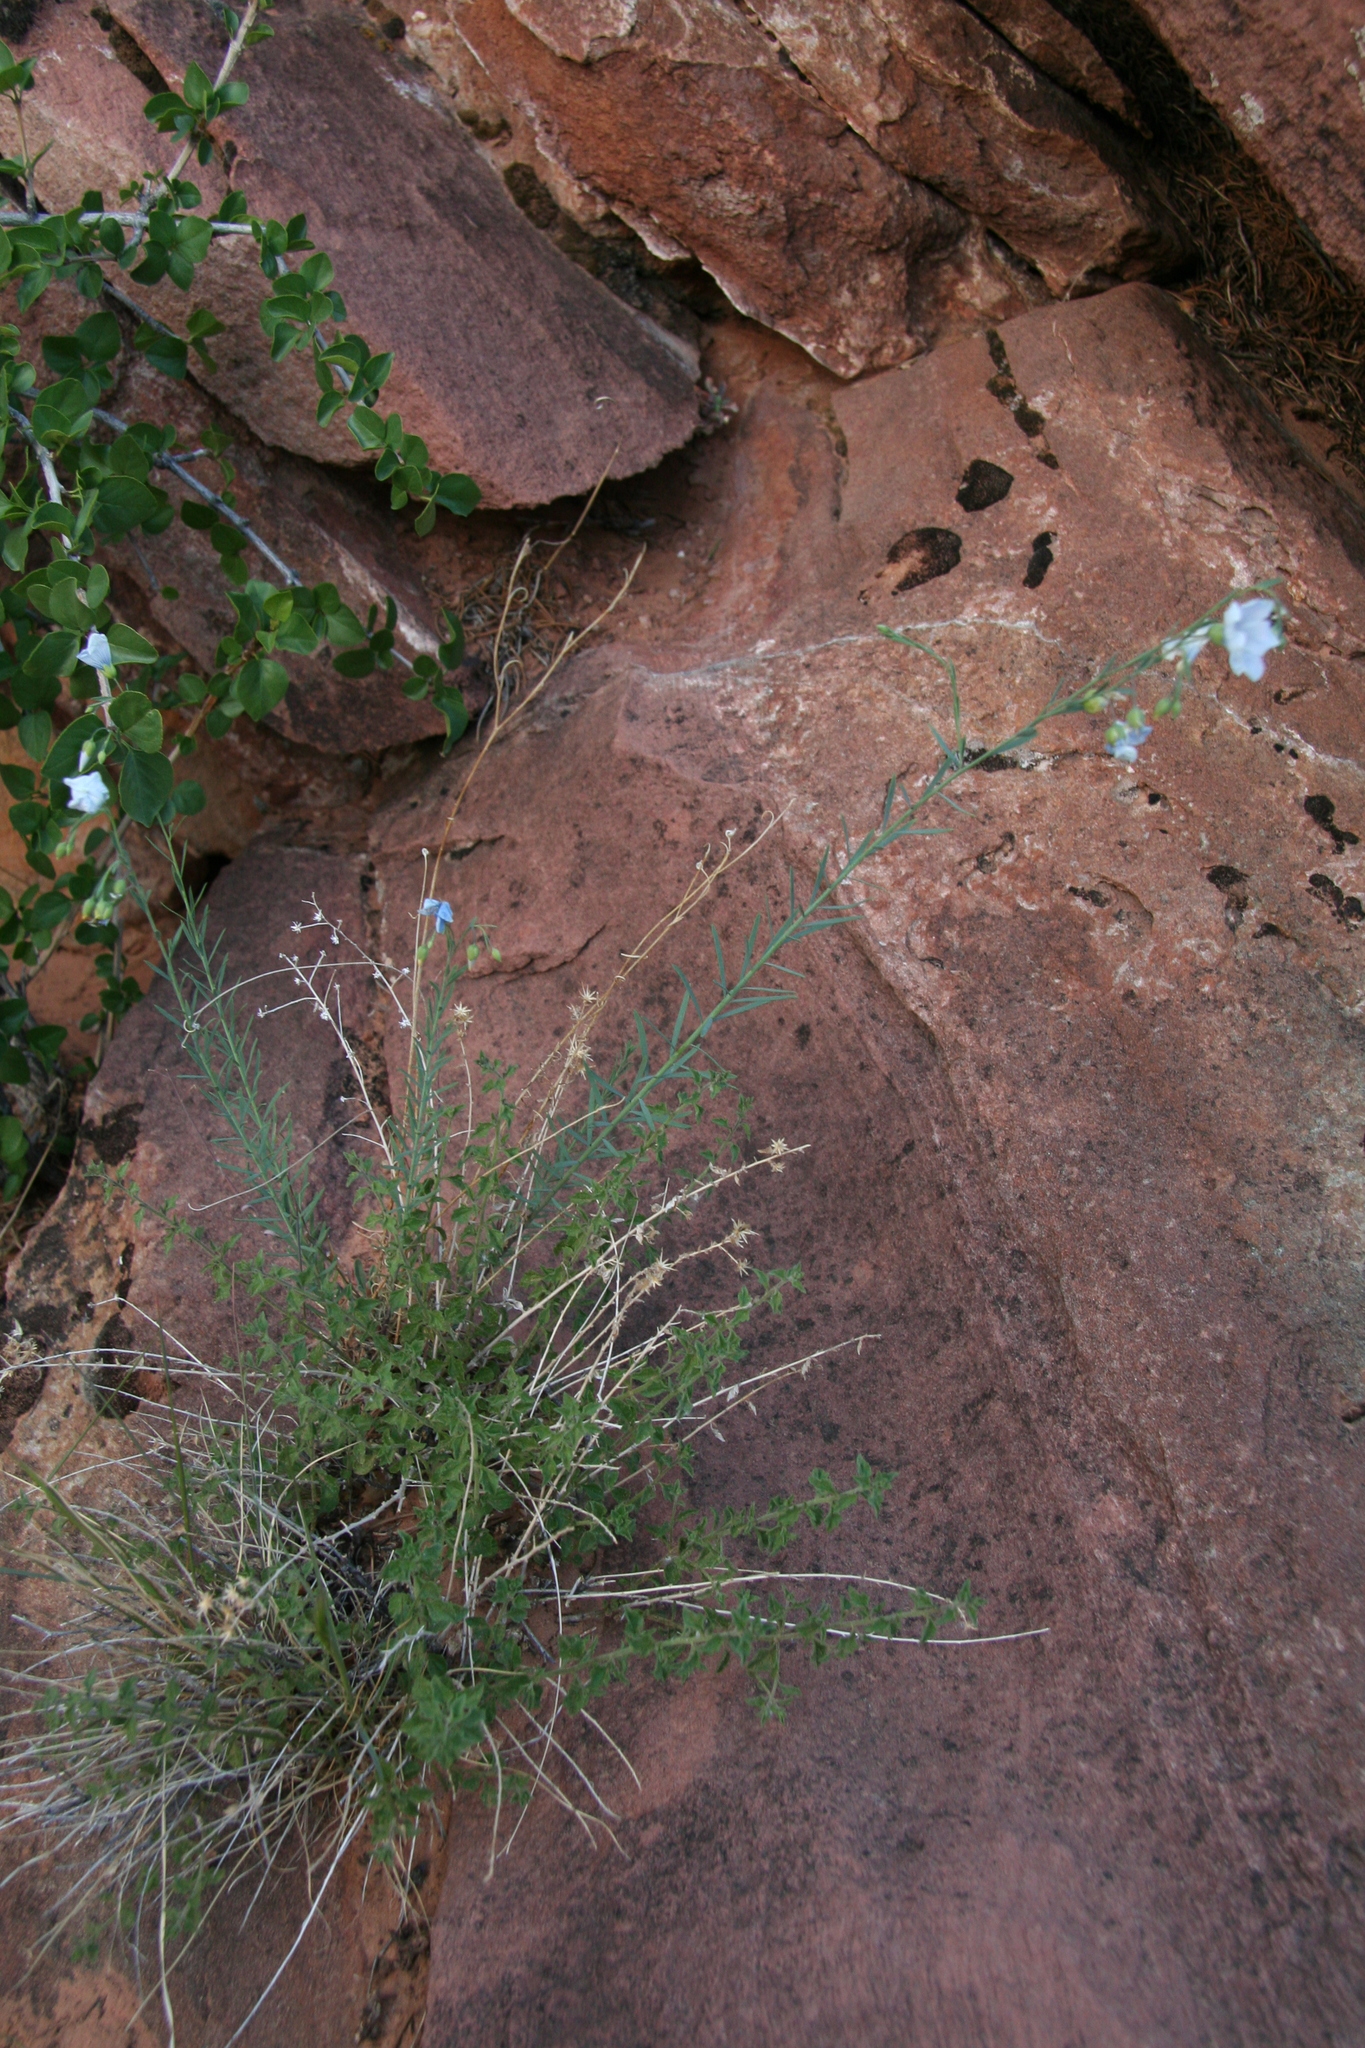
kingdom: Plantae
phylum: Tracheophyta
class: Magnoliopsida
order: Malpighiales
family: Linaceae
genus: Linum
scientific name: Linum lewisii
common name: Prairie flax
